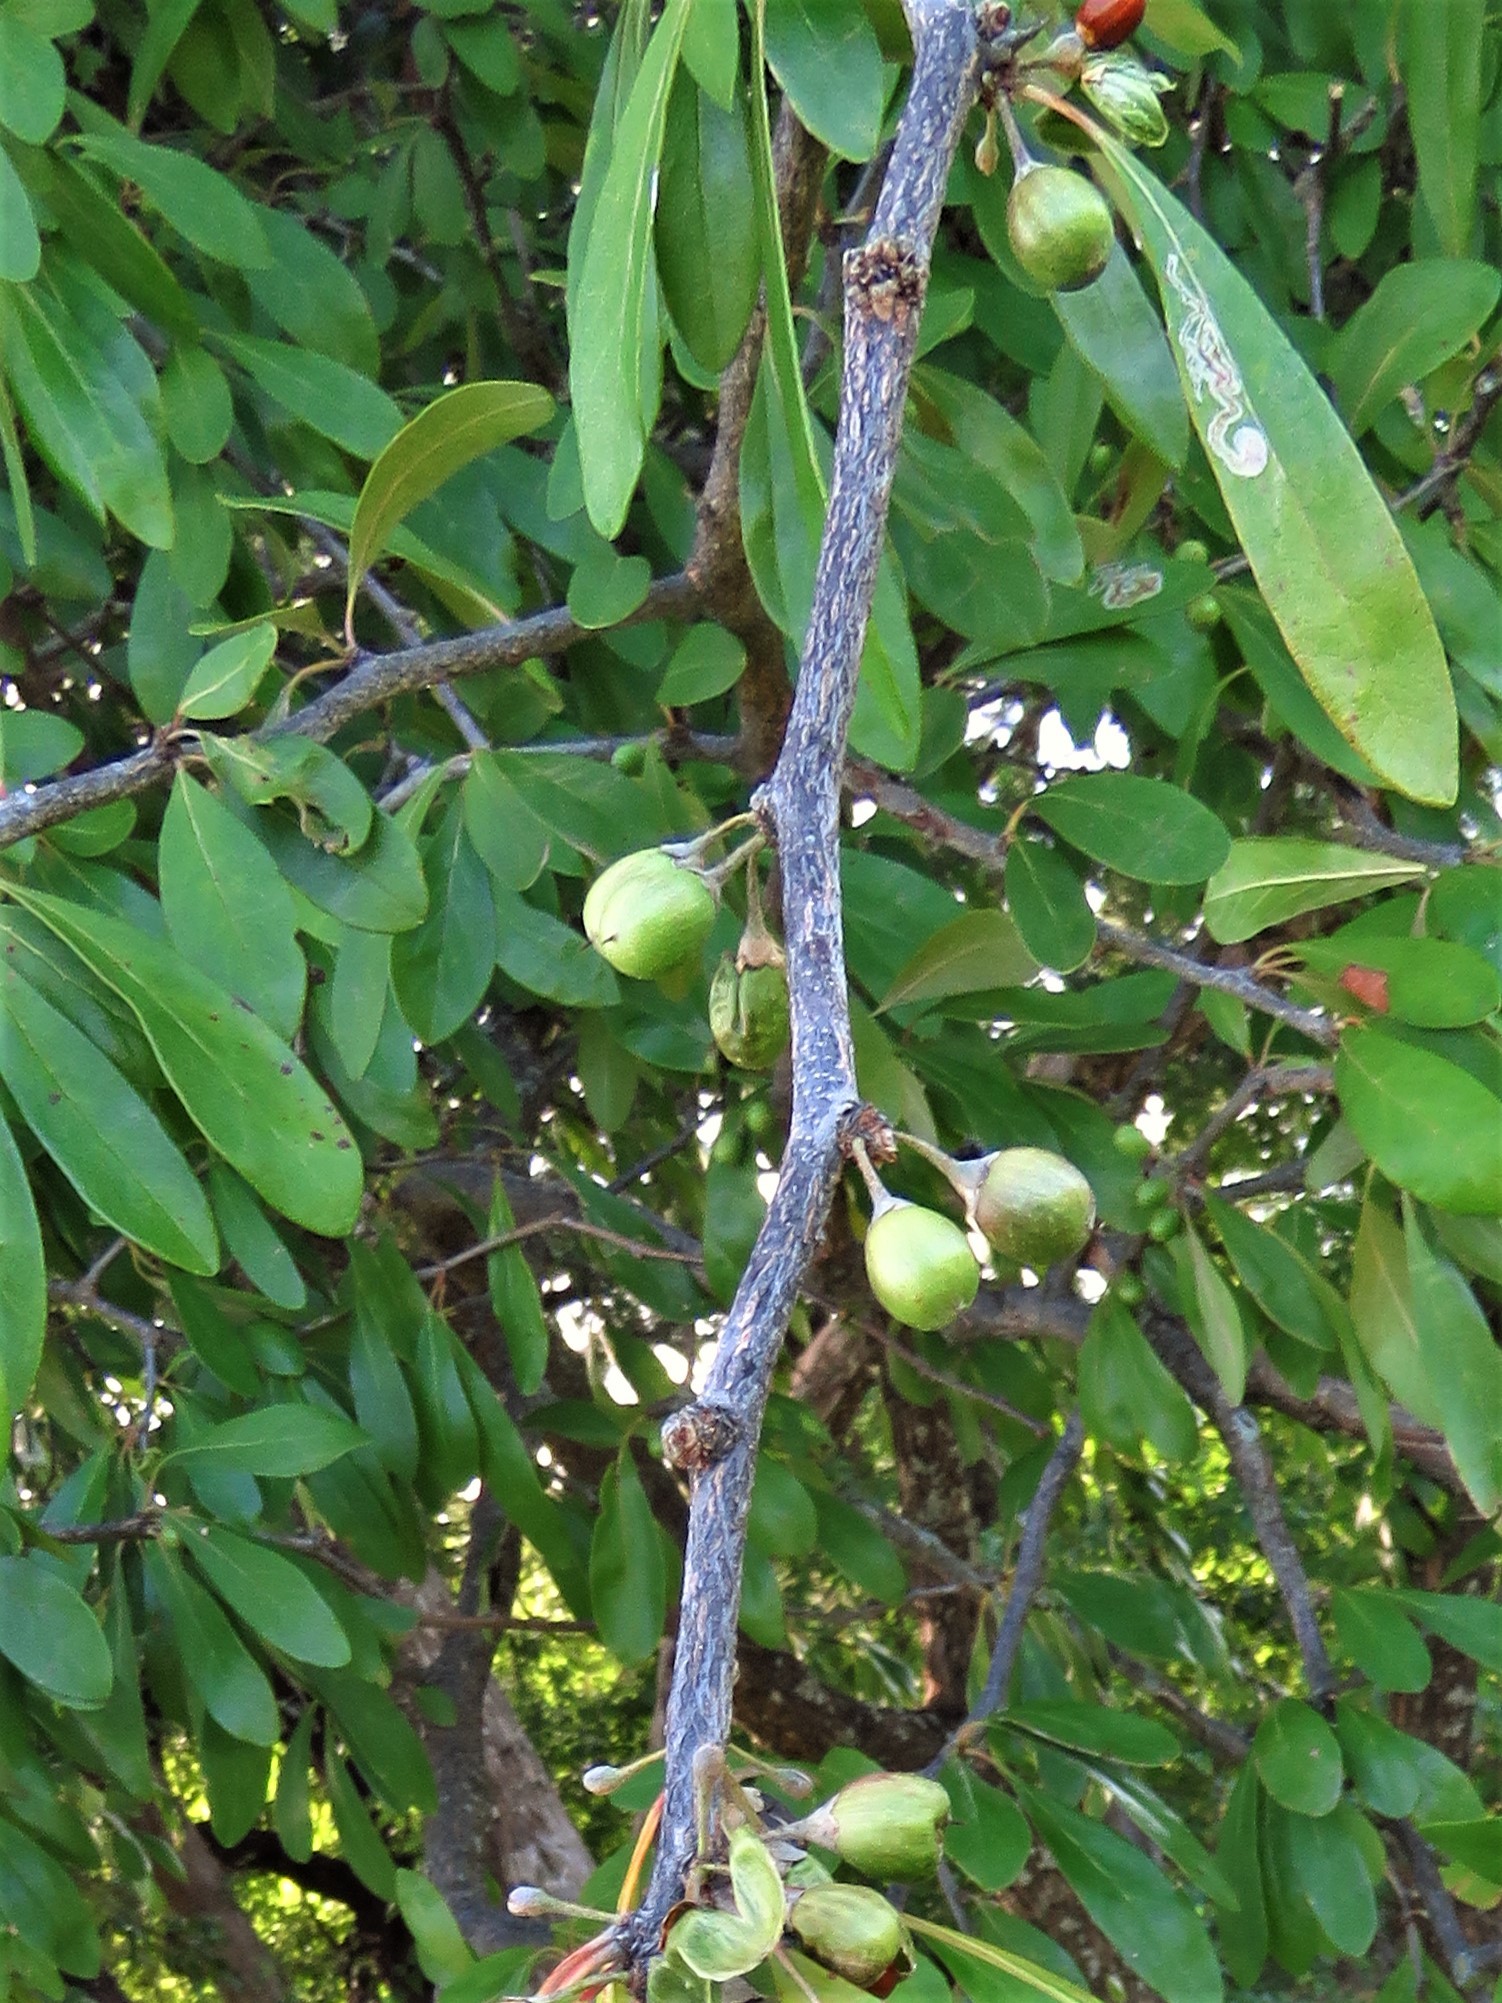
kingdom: Plantae
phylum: Tracheophyta
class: Magnoliopsida
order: Ericales
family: Sapotaceae
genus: Sideroxylon
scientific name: Sideroxylon lanuginosum
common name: Chittamwood
